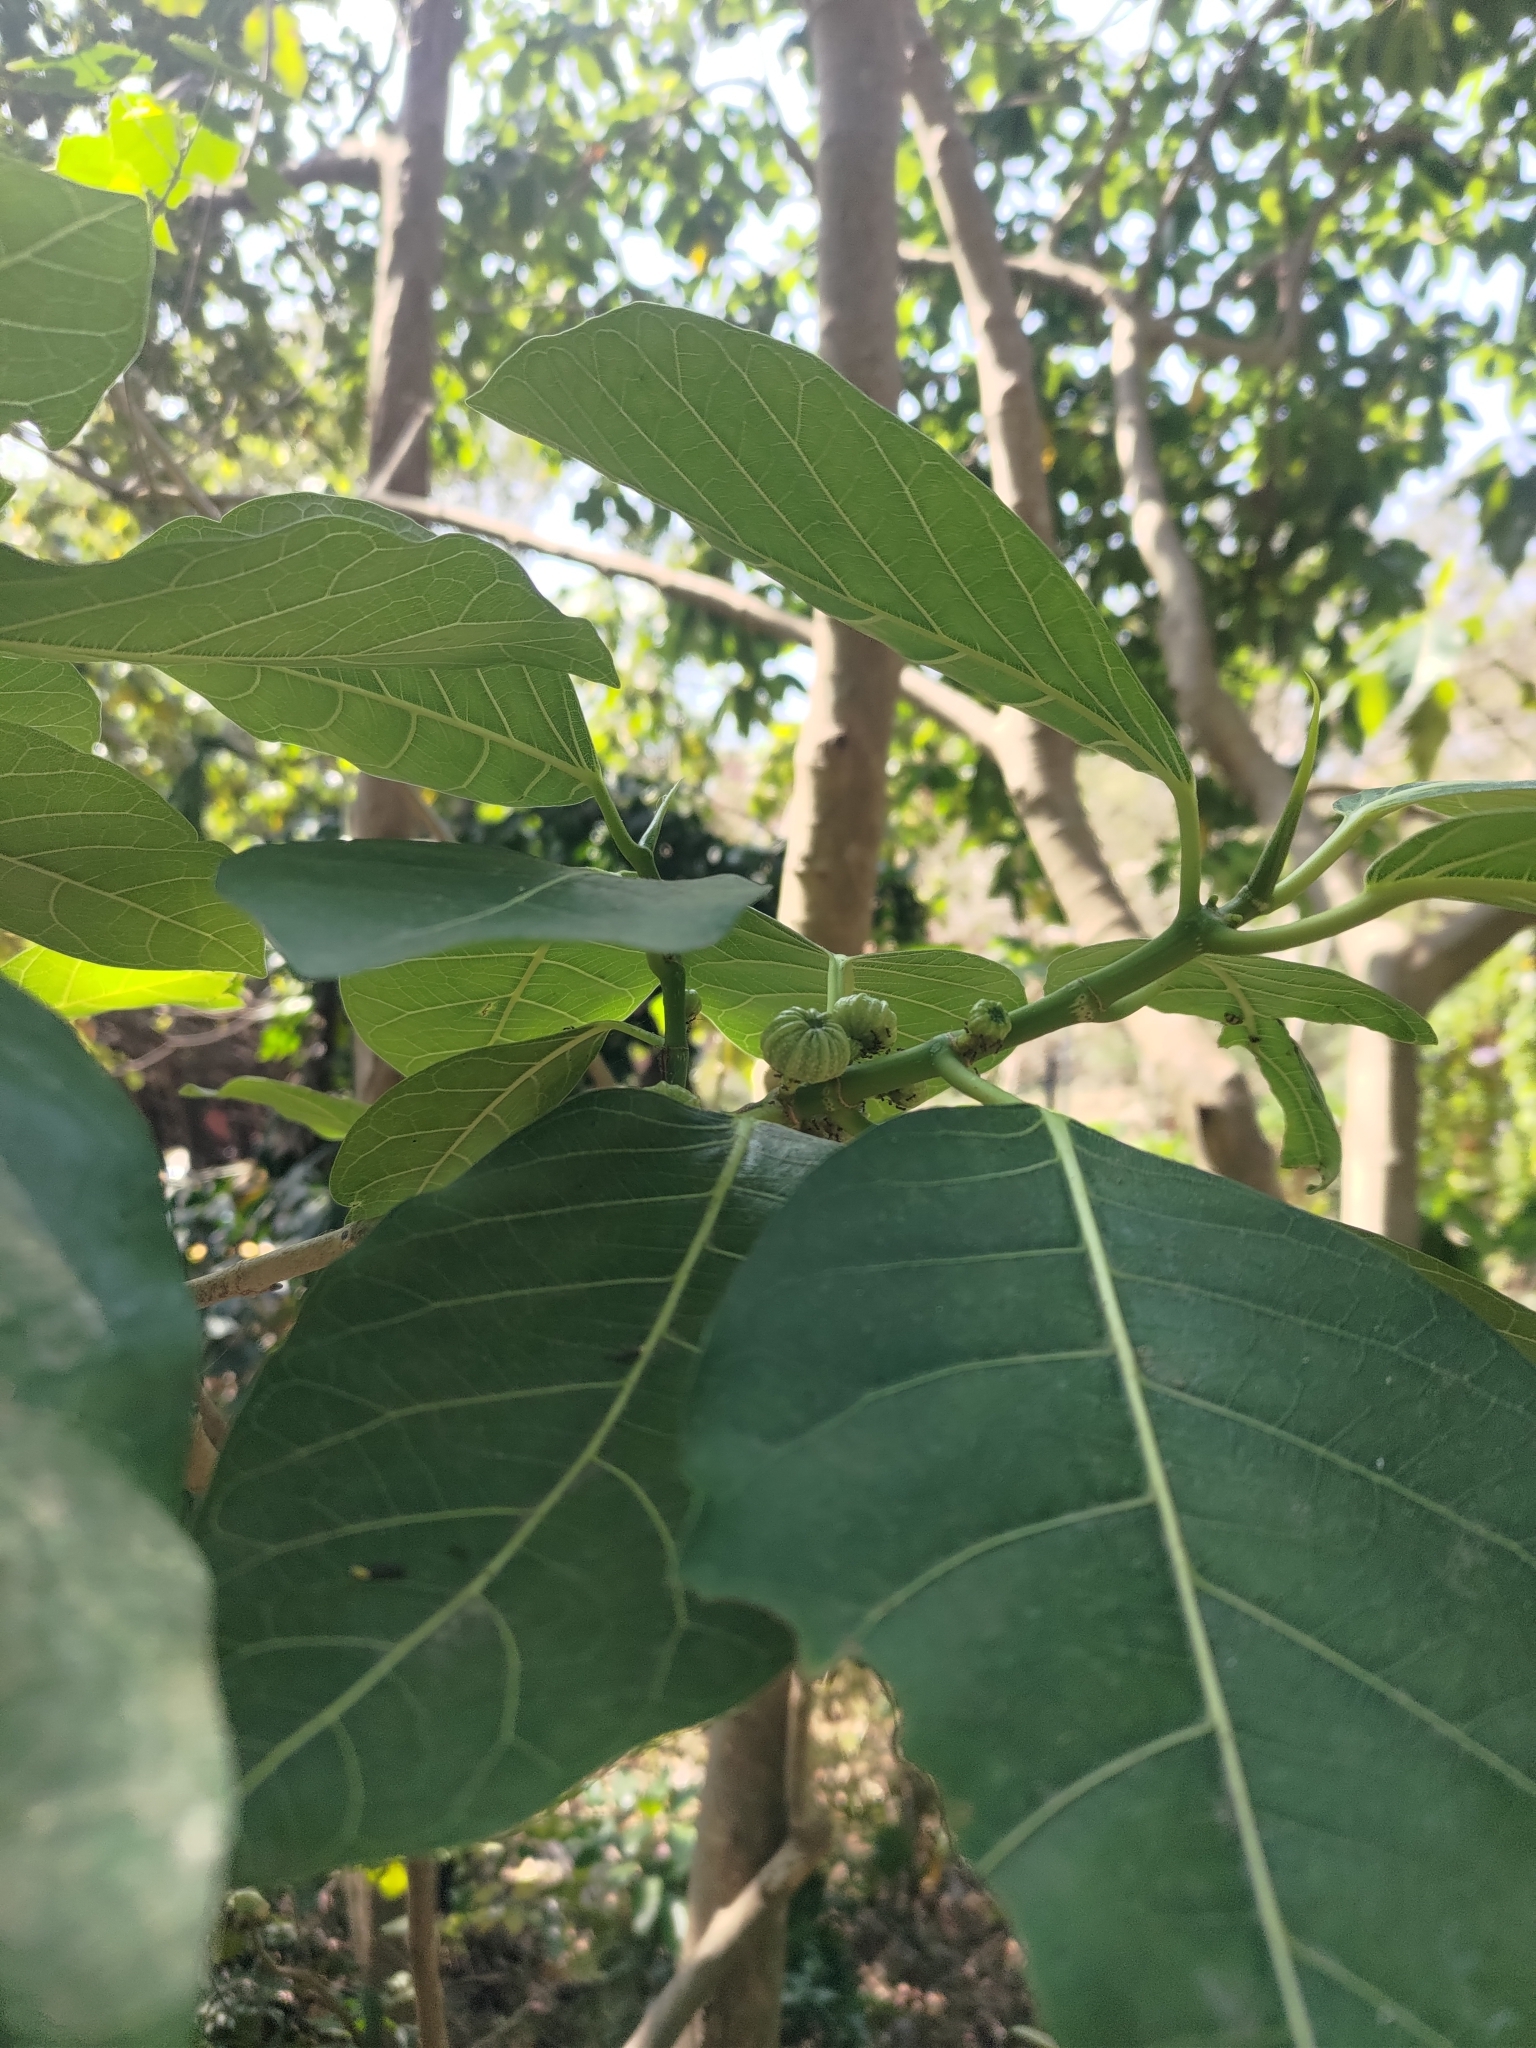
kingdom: Plantae
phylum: Tracheophyta
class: Magnoliopsida
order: Rosales
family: Moraceae
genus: Ficus
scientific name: Ficus septica
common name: Septic fig
